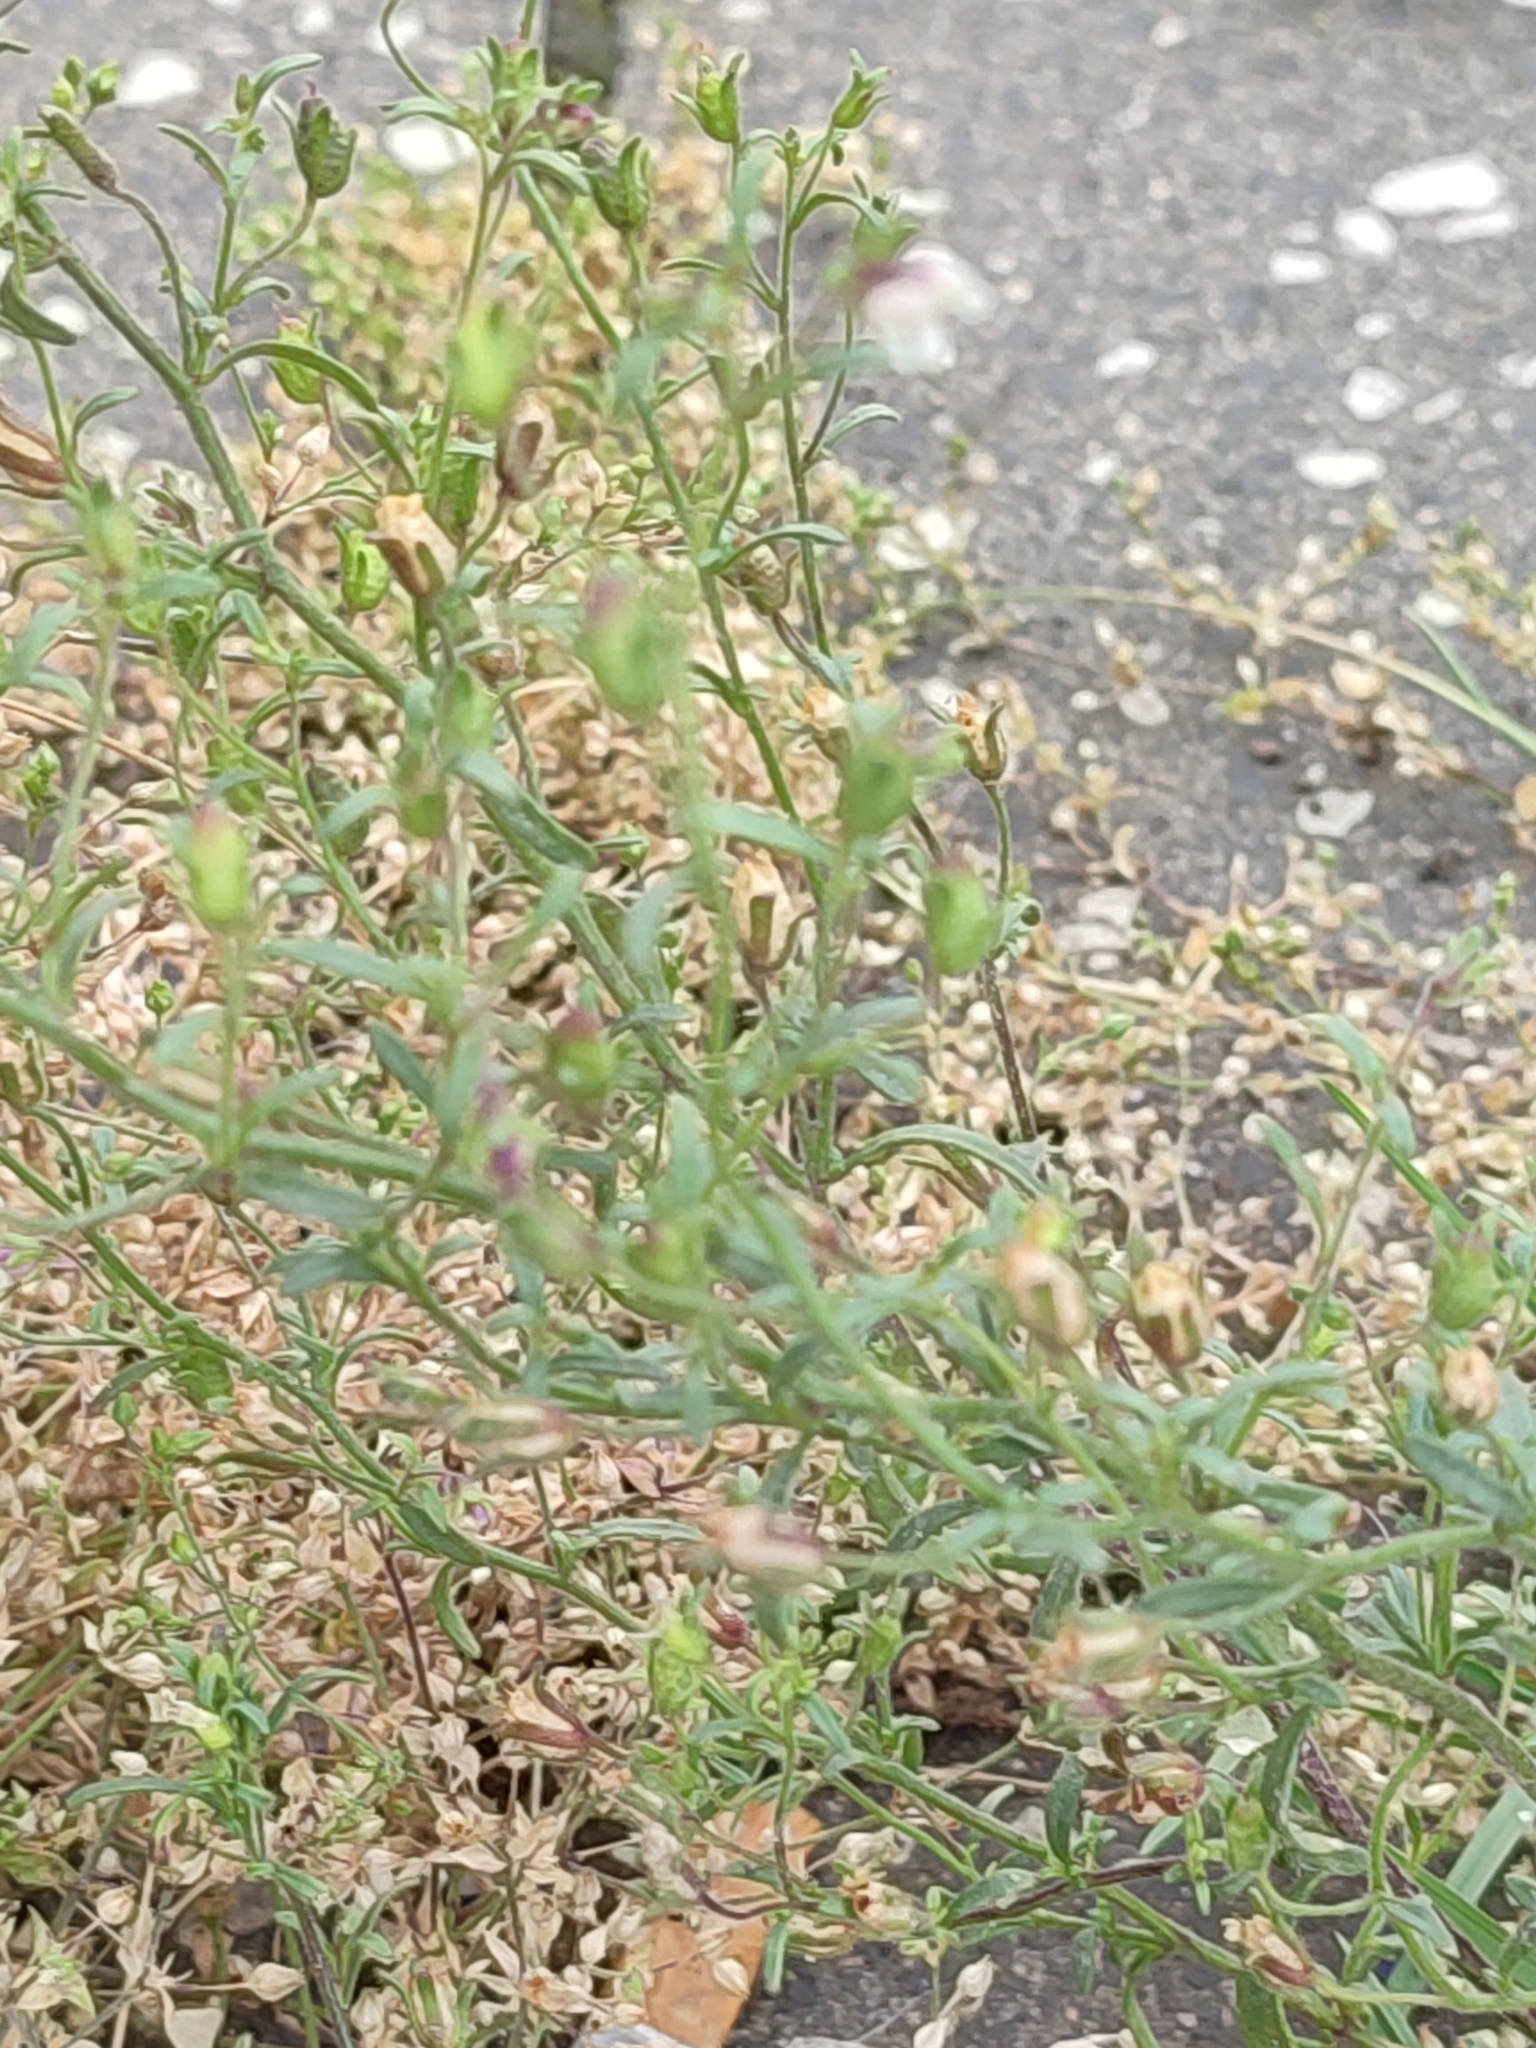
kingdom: Plantae
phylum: Tracheophyta
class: Magnoliopsida
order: Lamiales
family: Plantaginaceae
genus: Chaenorhinum
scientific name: Chaenorhinum minus
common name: Dwarf snapdragon
